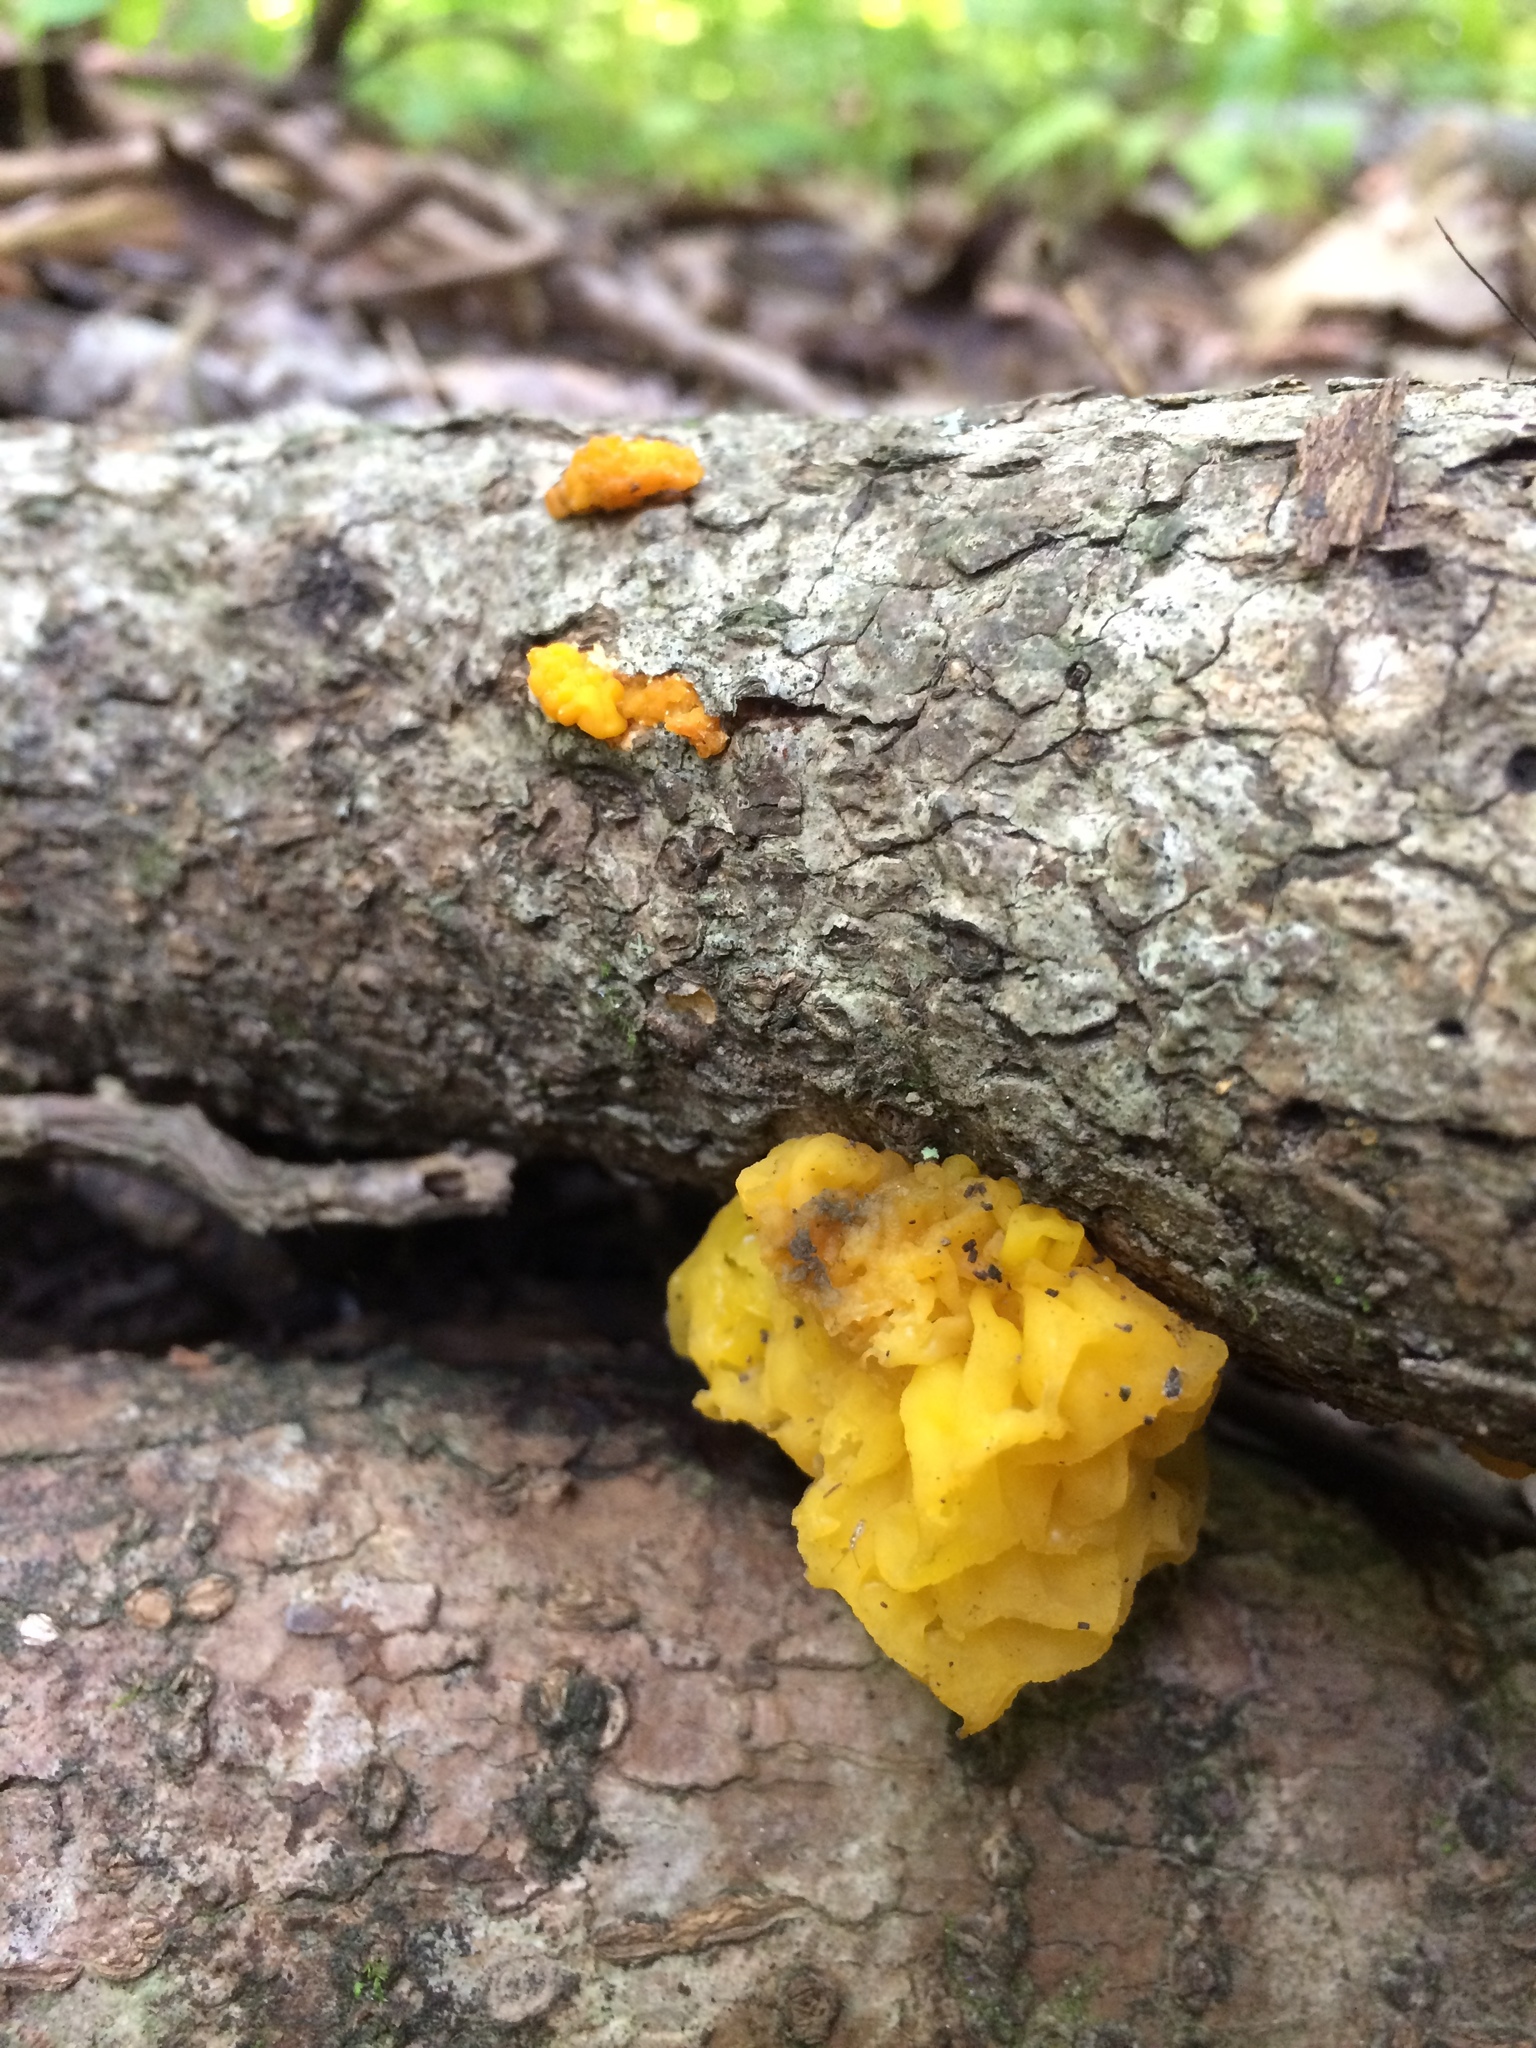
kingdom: Fungi
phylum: Basidiomycota
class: Tremellomycetes
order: Tremellales
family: Tremellaceae
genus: Tremella
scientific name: Tremella mesenterica
